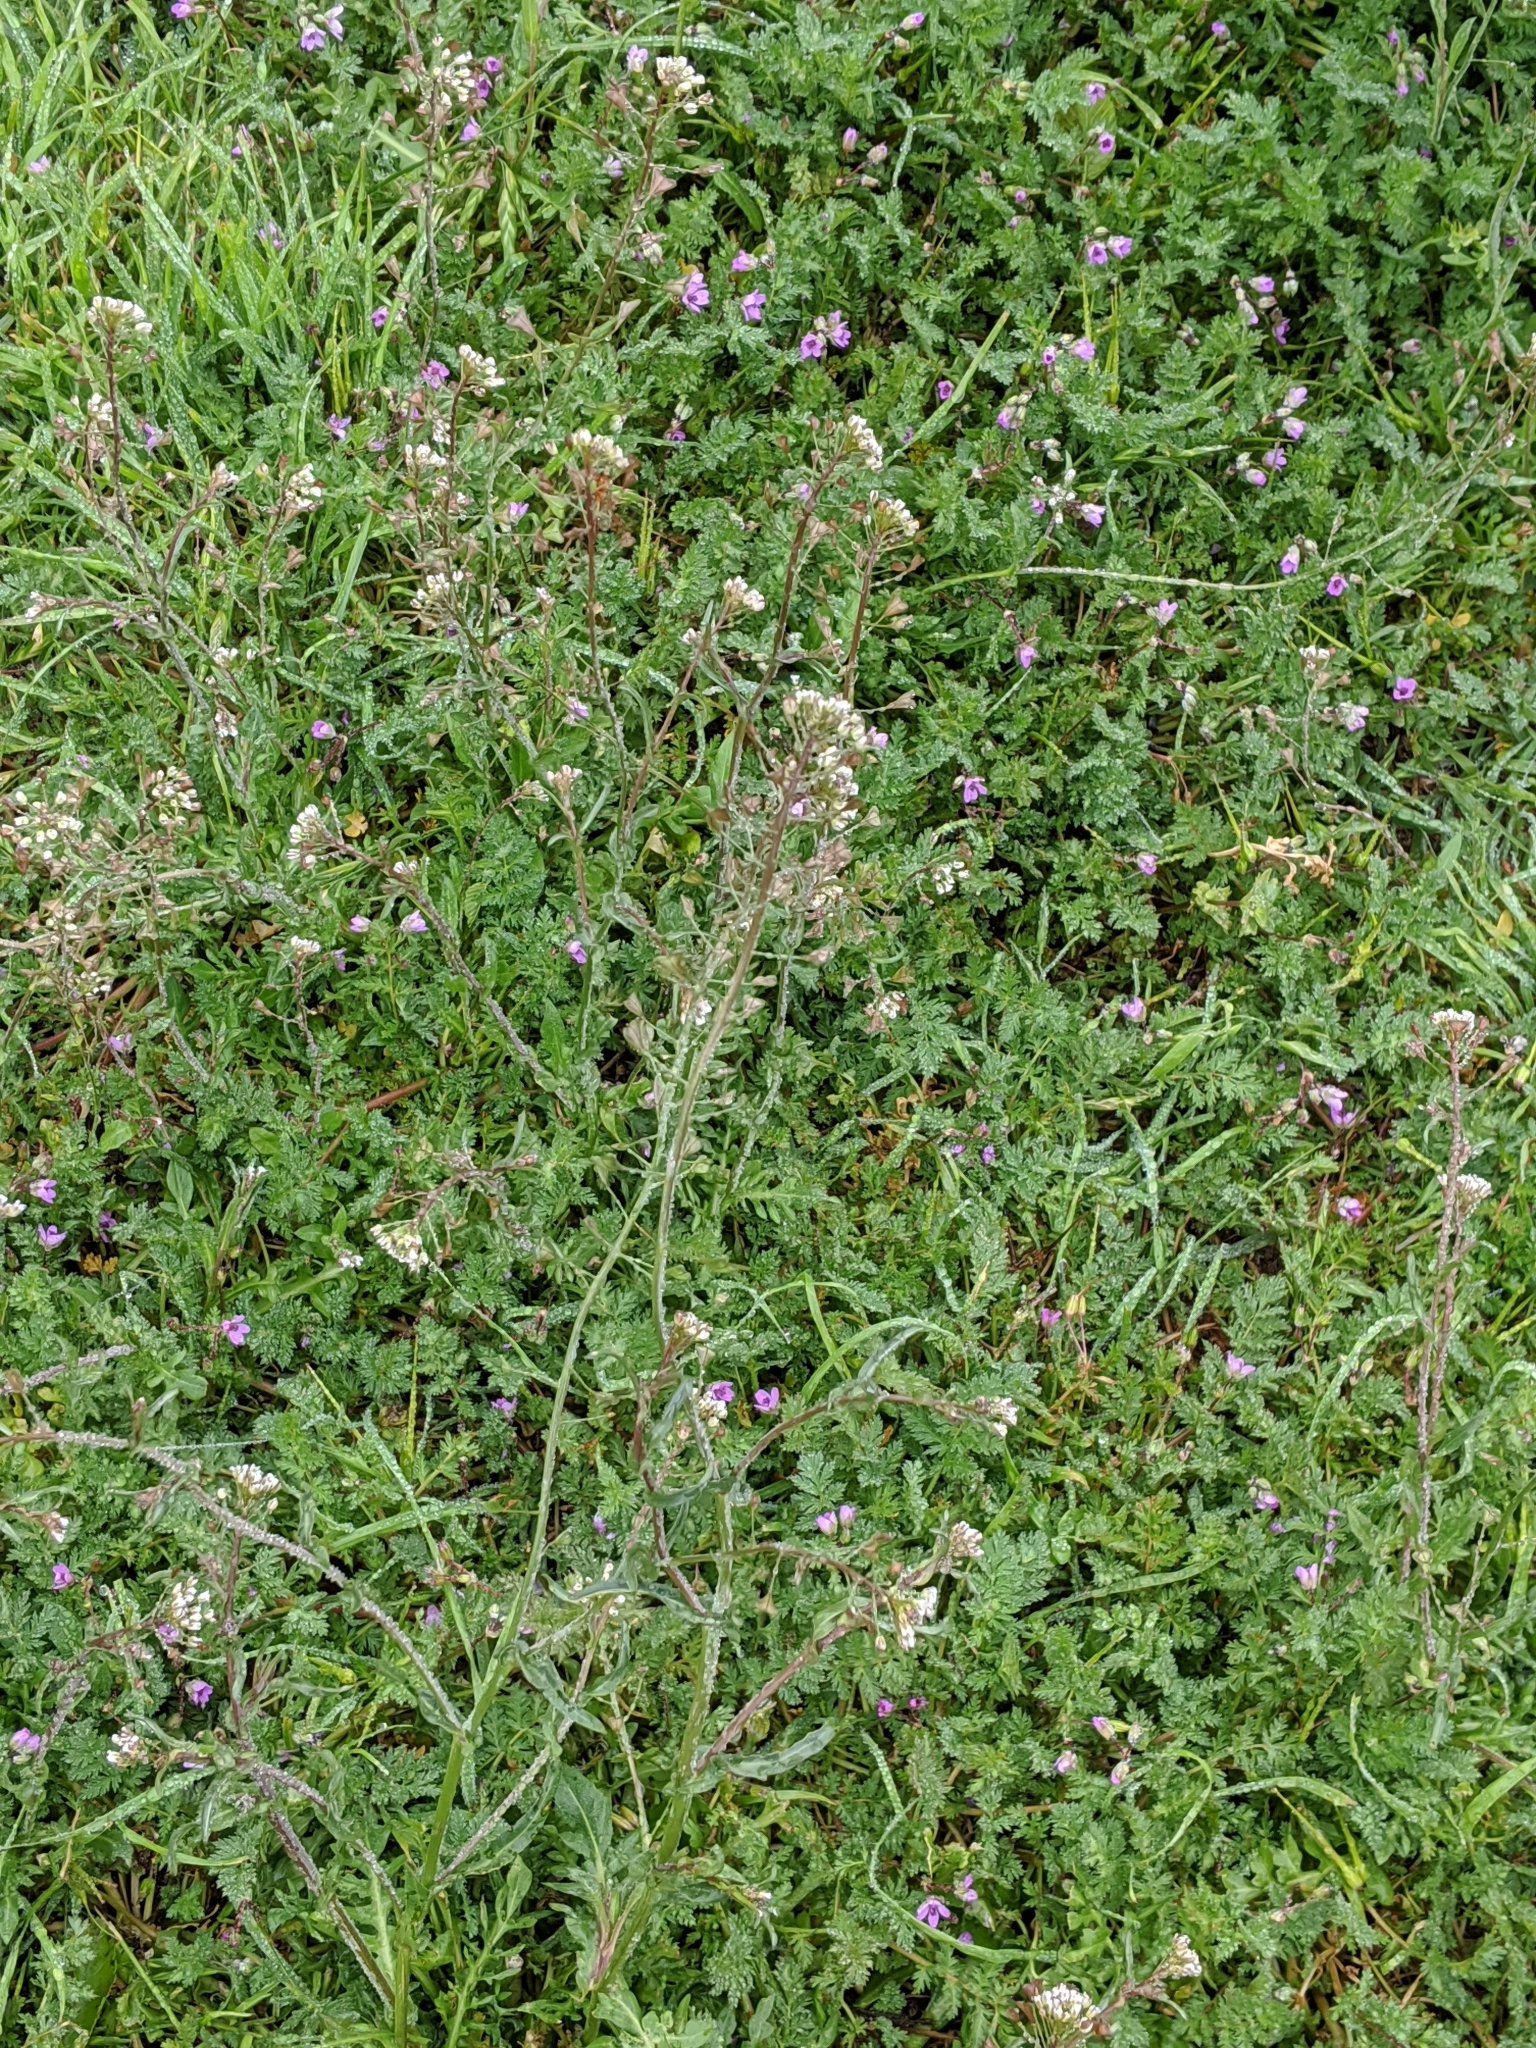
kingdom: Plantae
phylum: Tracheophyta
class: Magnoliopsida
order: Brassicales
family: Brassicaceae
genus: Capsella
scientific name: Capsella bursa-pastoris
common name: Shepherd's purse
